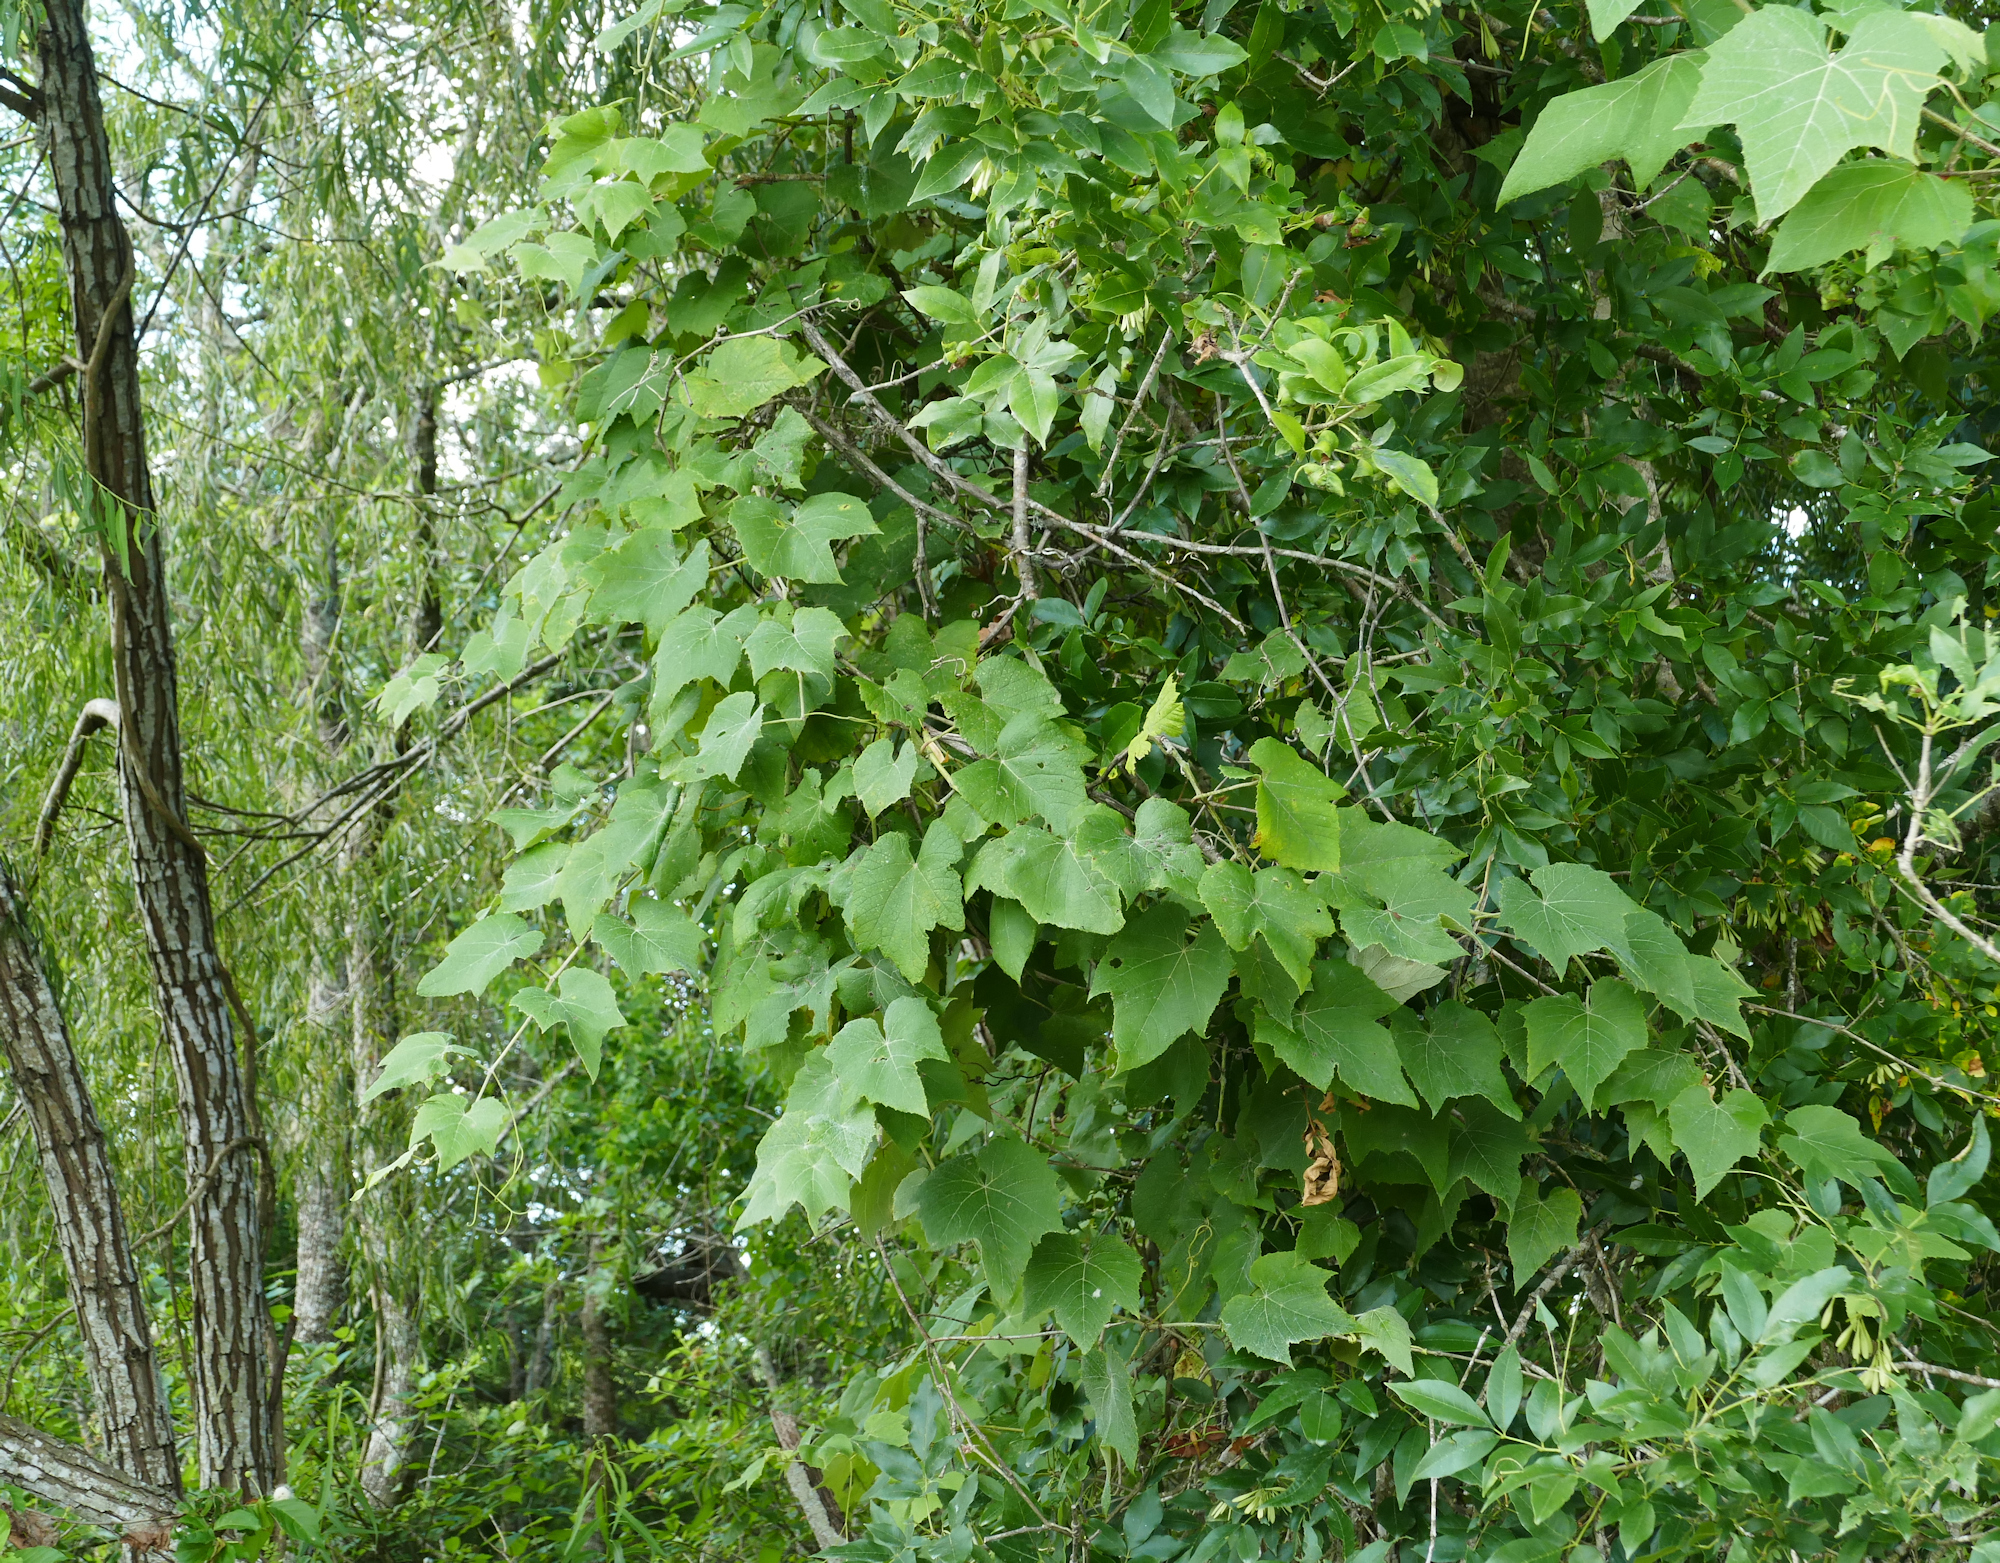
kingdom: Plantae
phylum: Tracheophyta
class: Magnoliopsida
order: Vitales
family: Vitaceae
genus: Vitis
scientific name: Vitis cinerea
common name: Ashy grape
